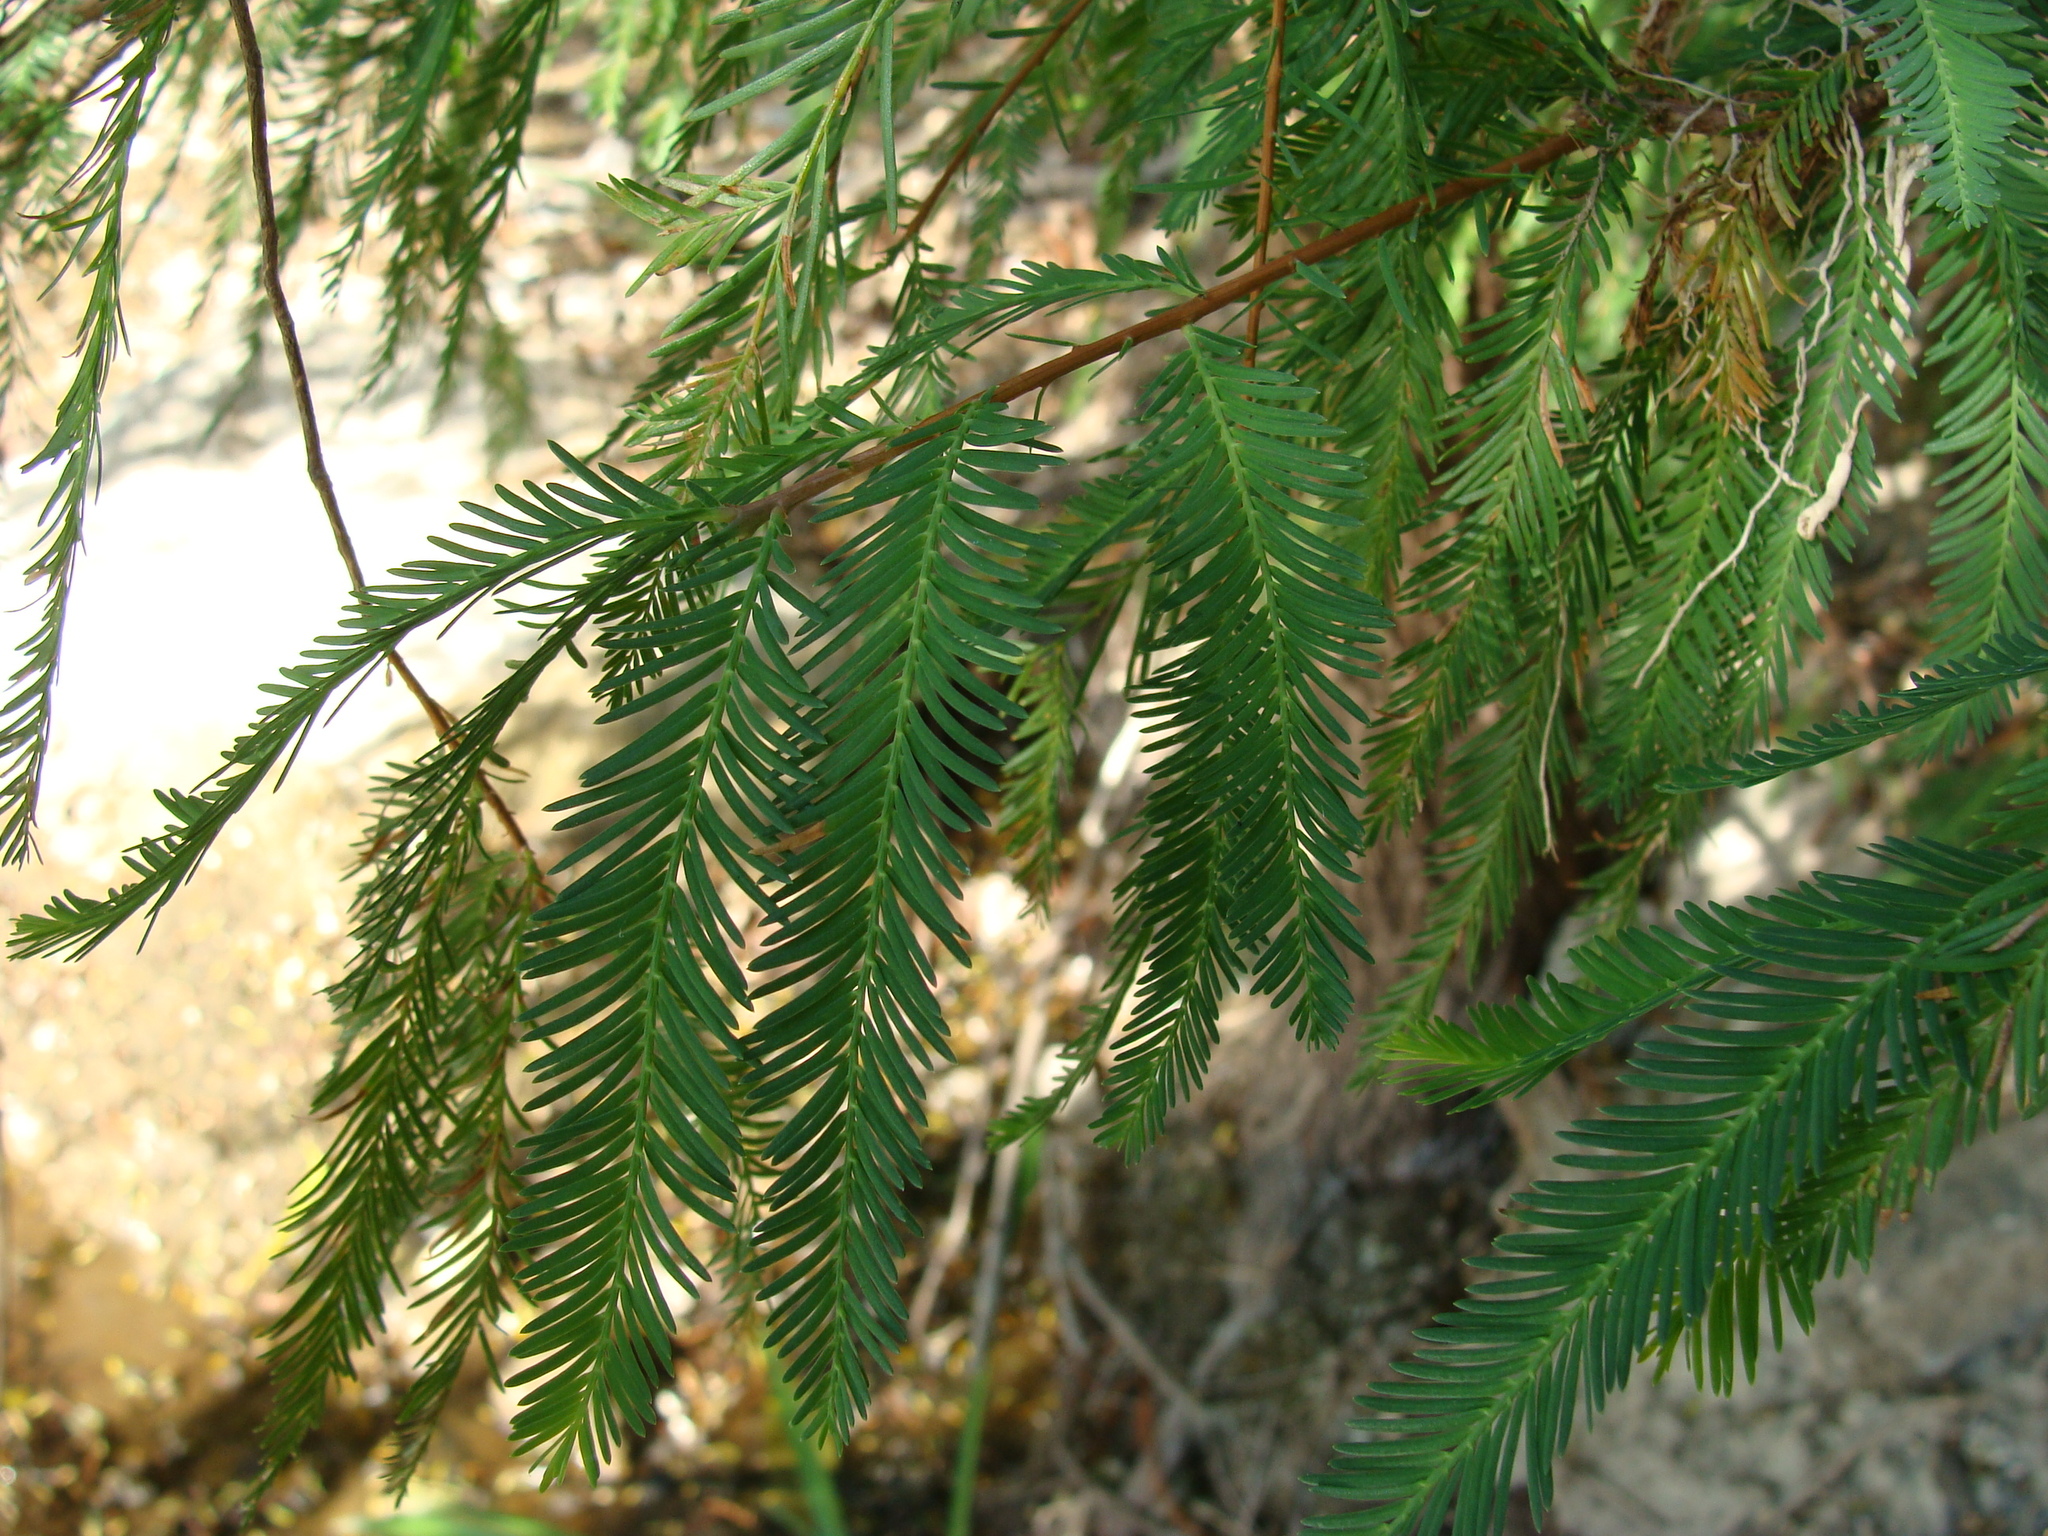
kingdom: Plantae
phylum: Tracheophyta
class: Pinopsida
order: Pinales
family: Cupressaceae
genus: Taxodium
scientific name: Taxodium mucronatum
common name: Montezume bald cypress
